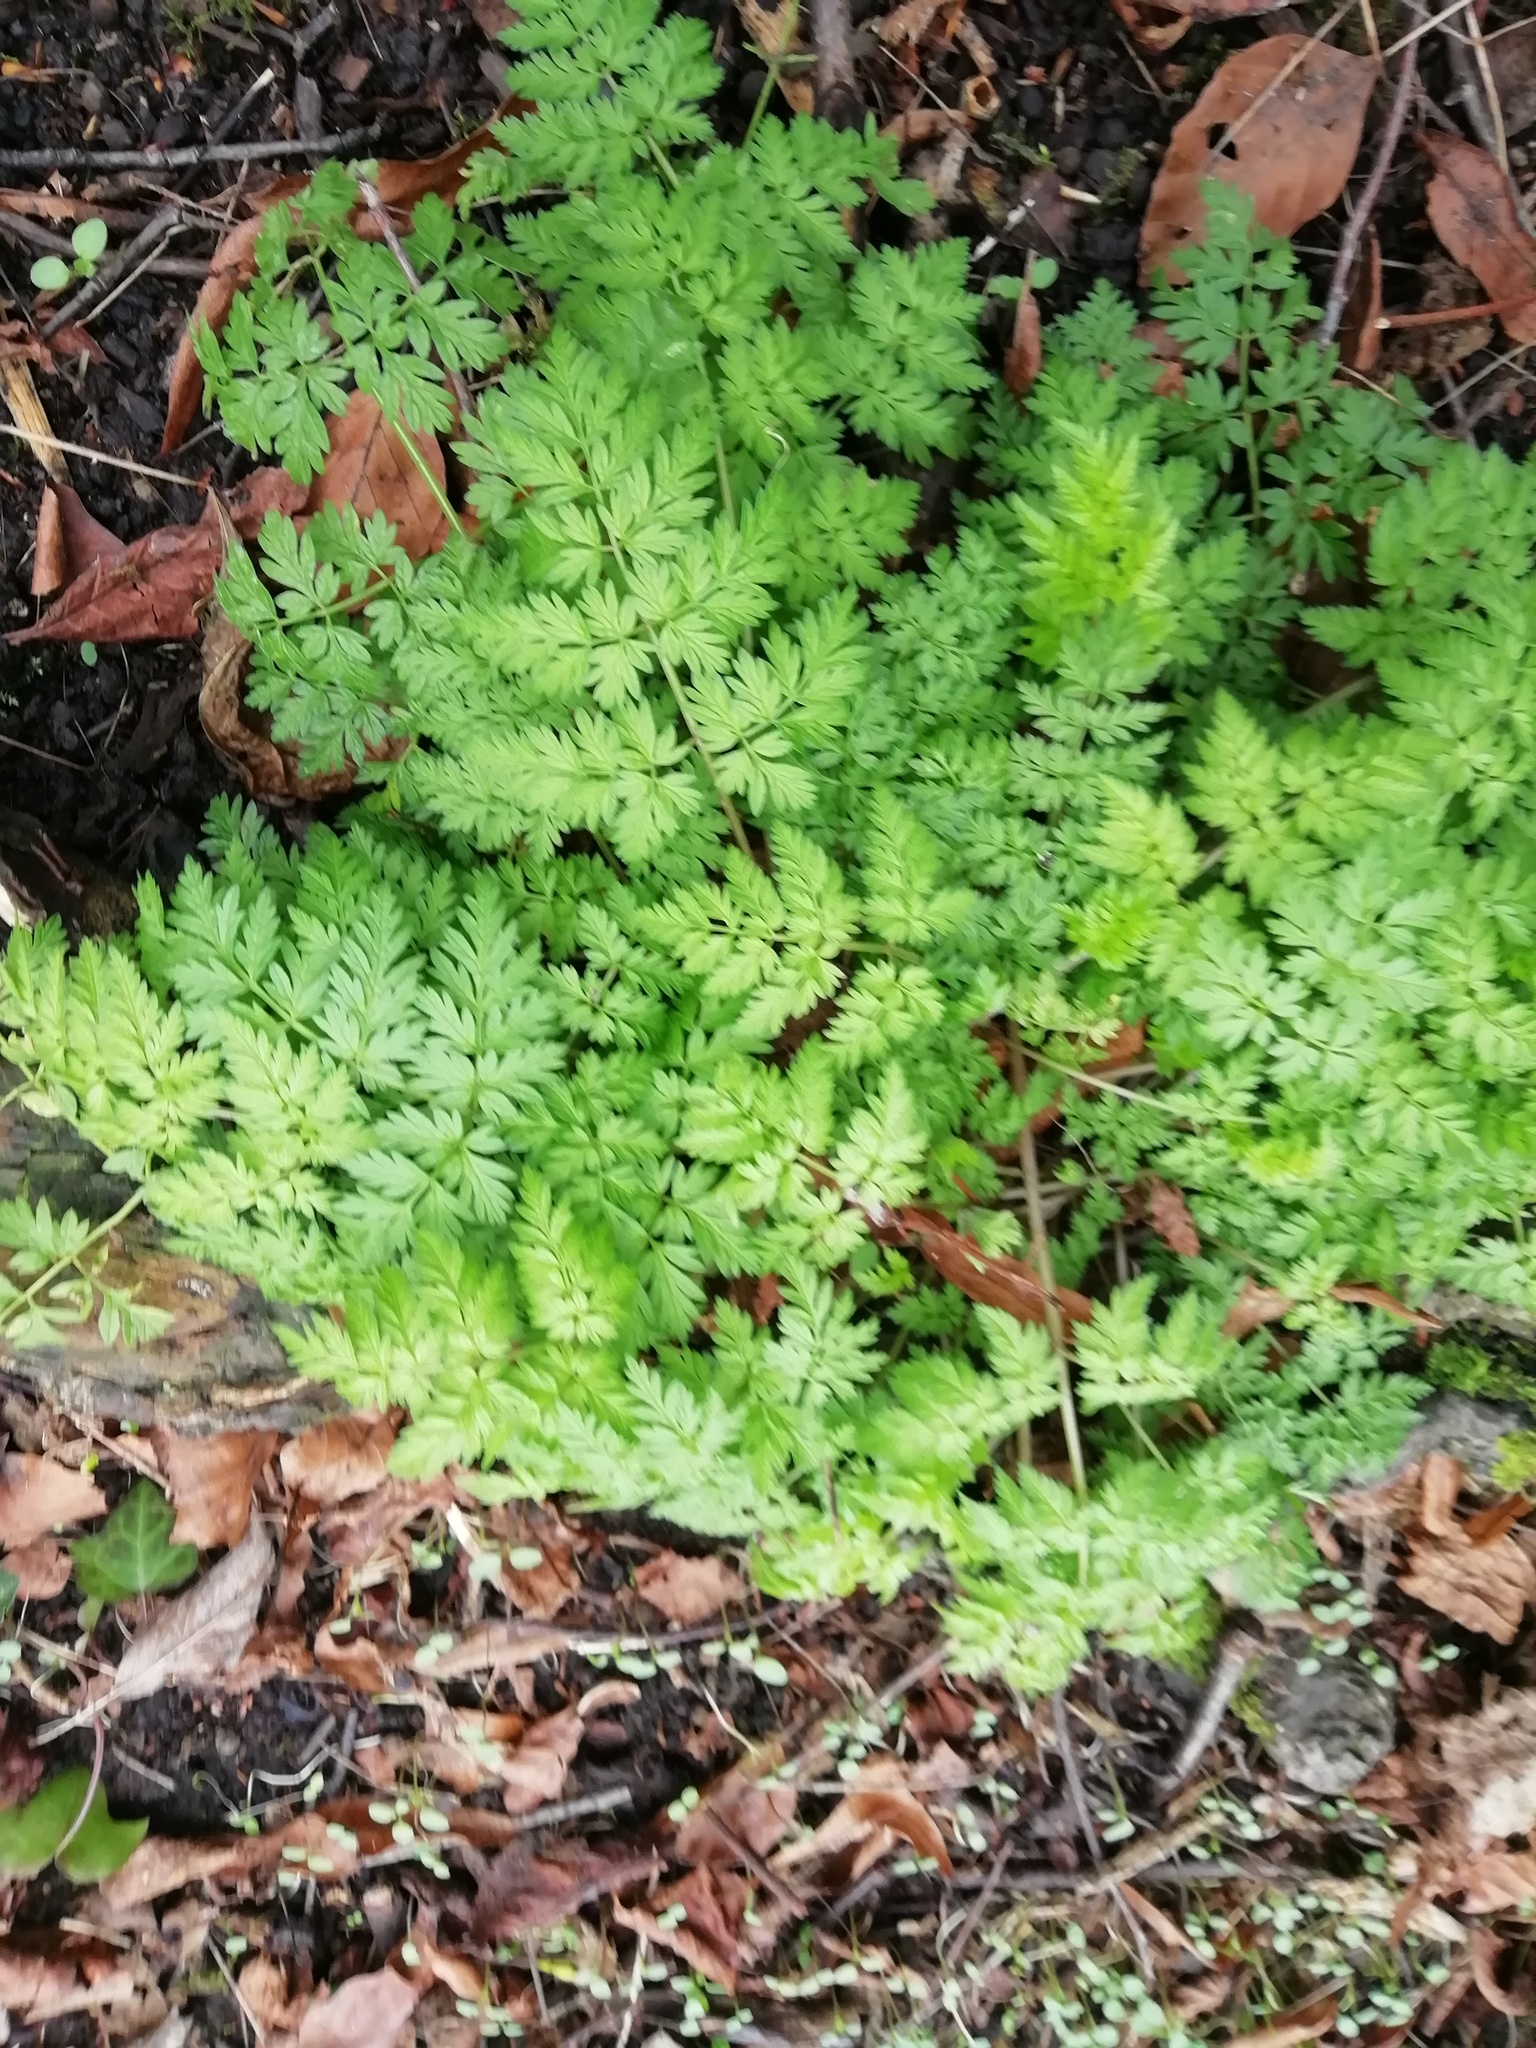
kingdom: Plantae
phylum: Tracheophyta
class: Magnoliopsida
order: Apiales
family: Apiaceae
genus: Anthriscus
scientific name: Anthriscus sylvestris
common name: Cow parsley
